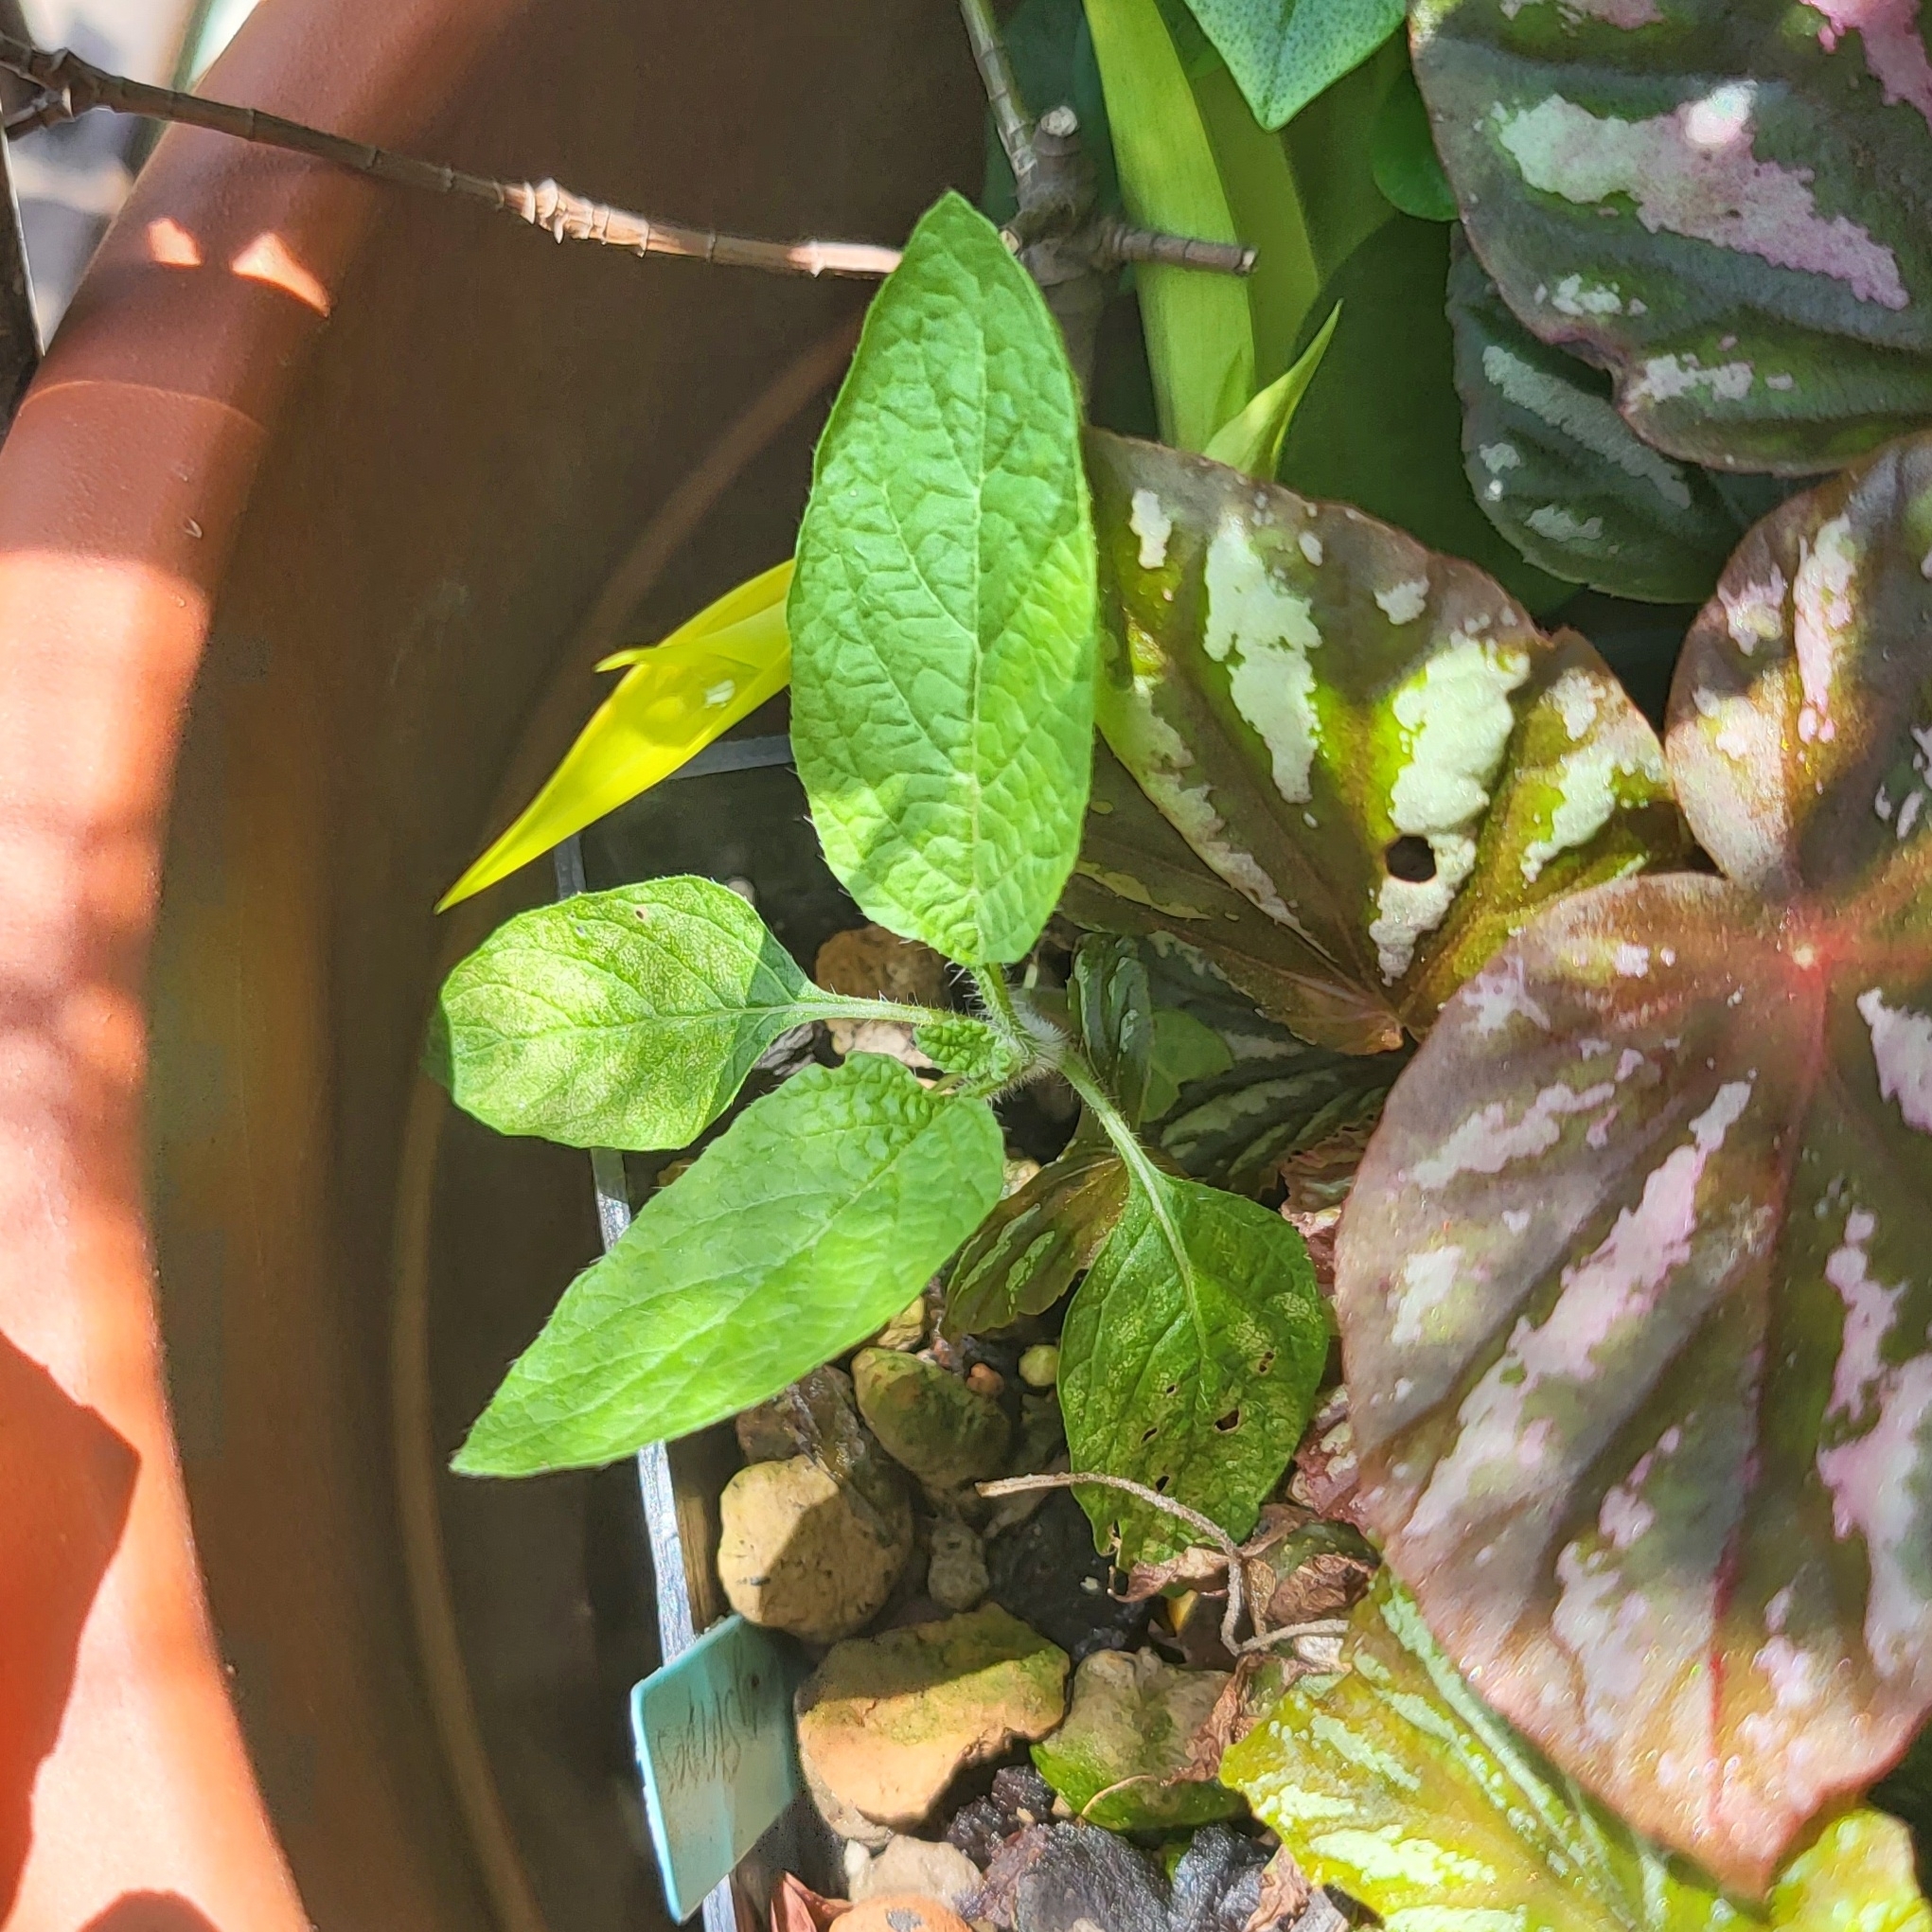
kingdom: Plantae
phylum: Tracheophyta
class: Magnoliopsida
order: Boraginales
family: Heliotropiaceae
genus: Heliotropium
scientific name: Heliotropium indicum
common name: Indian heliotrope
